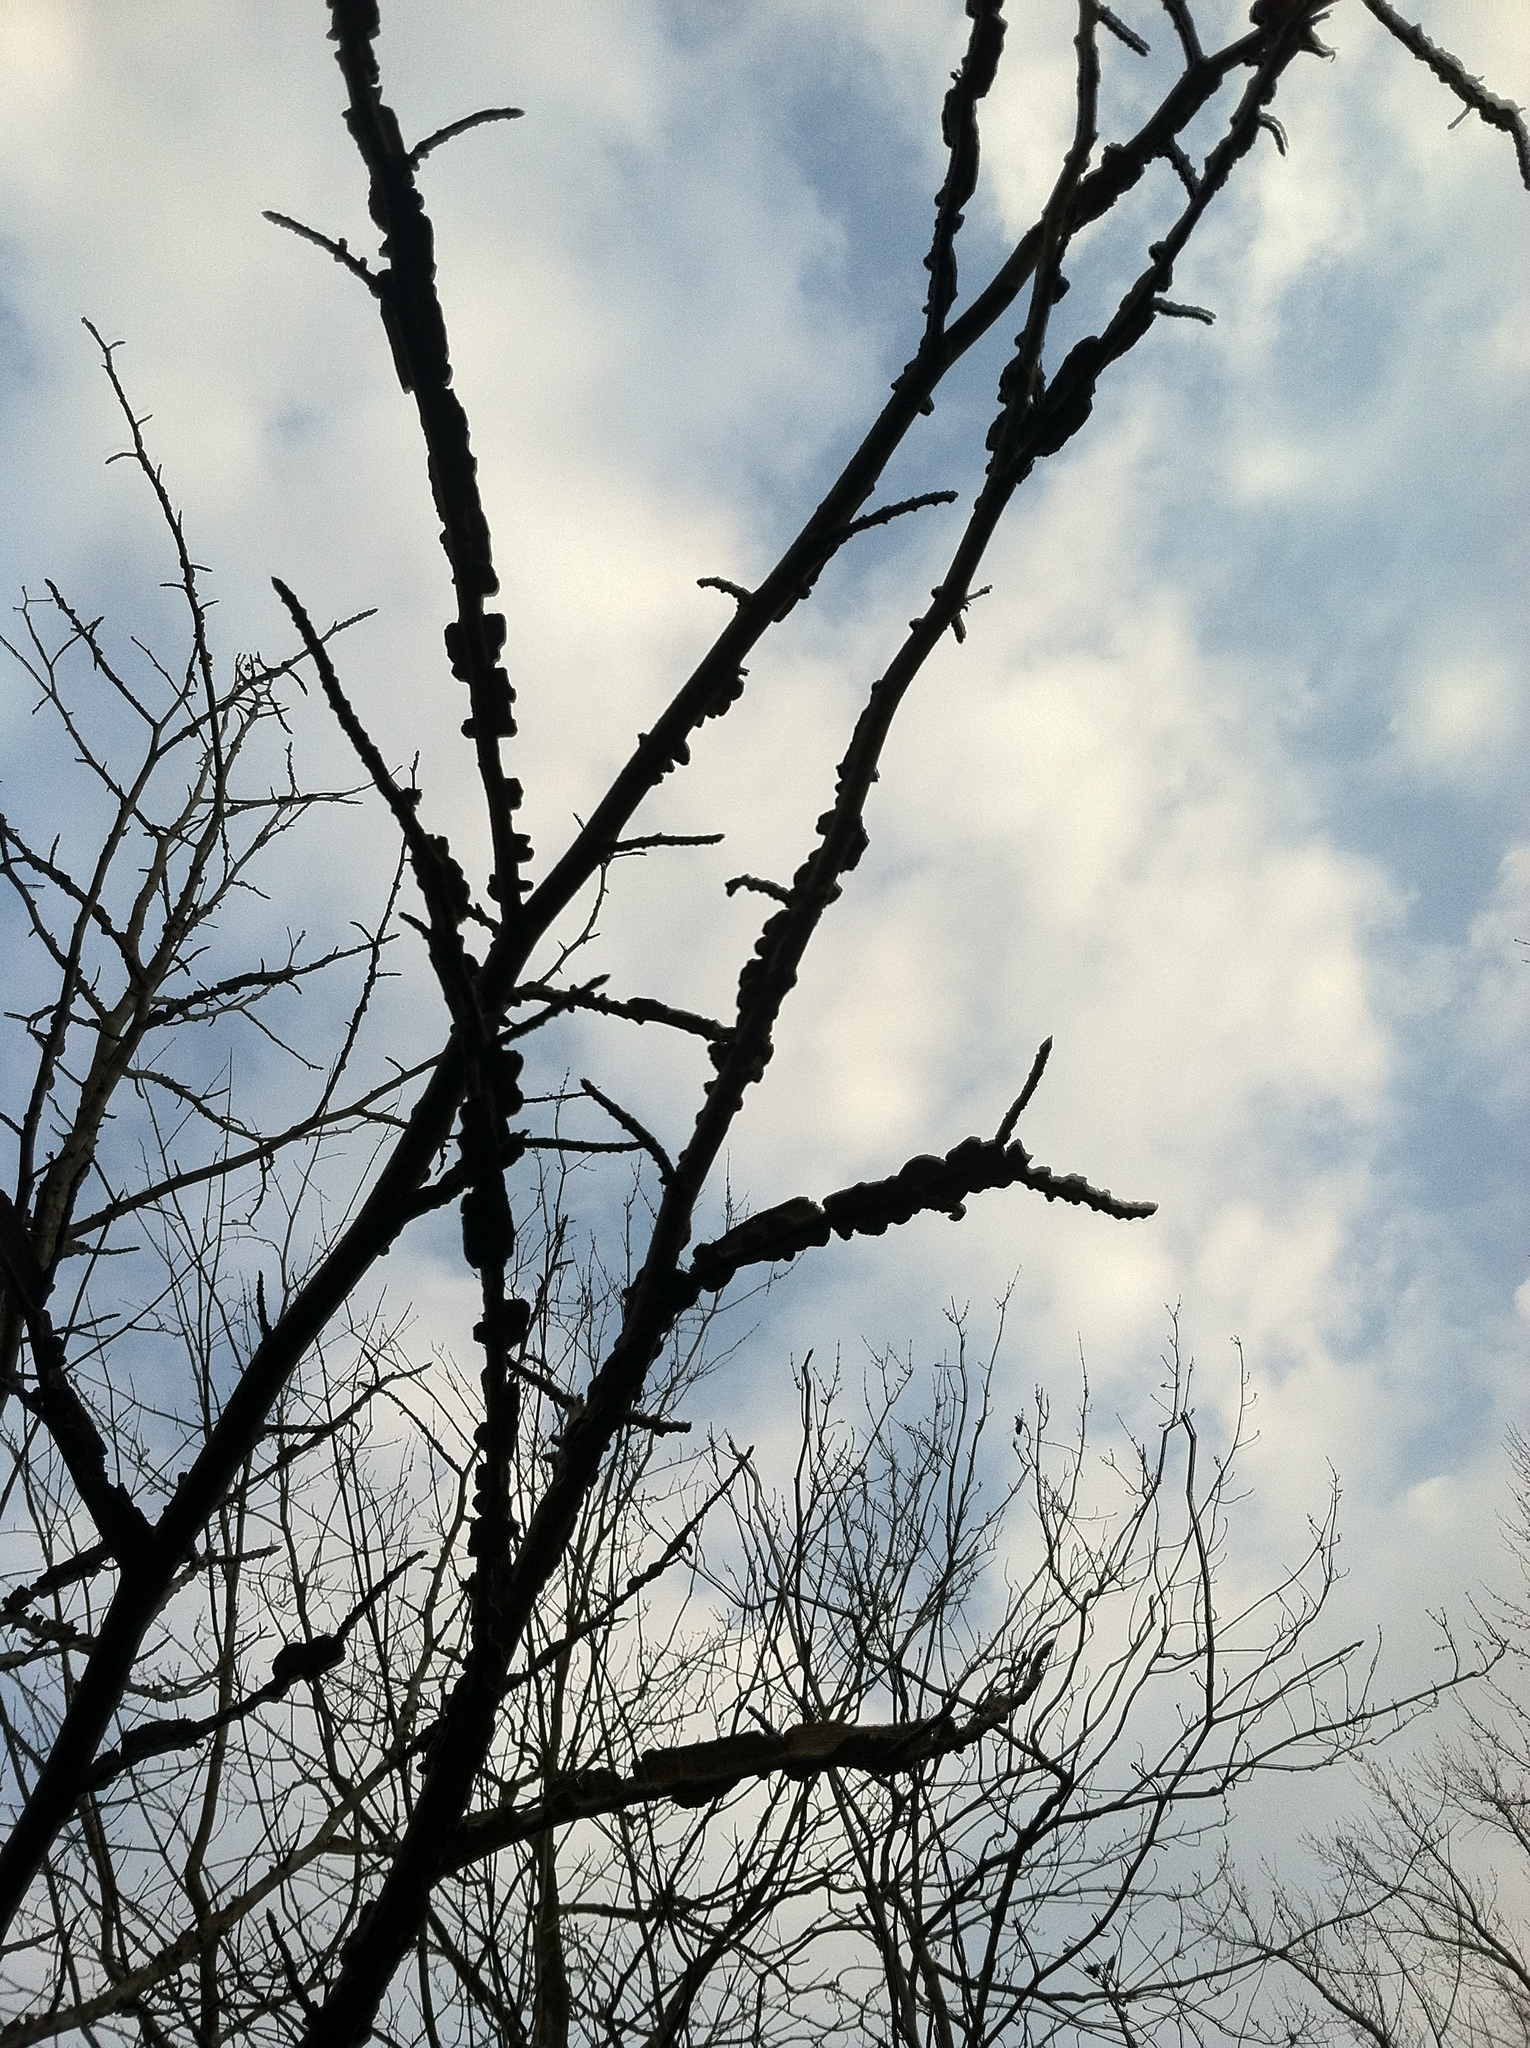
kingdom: Plantae
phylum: Tracheophyta
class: Magnoliopsida
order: Saxifragales
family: Altingiaceae
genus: Liquidambar
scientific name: Liquidambar styraciflua
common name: Sweet gum
